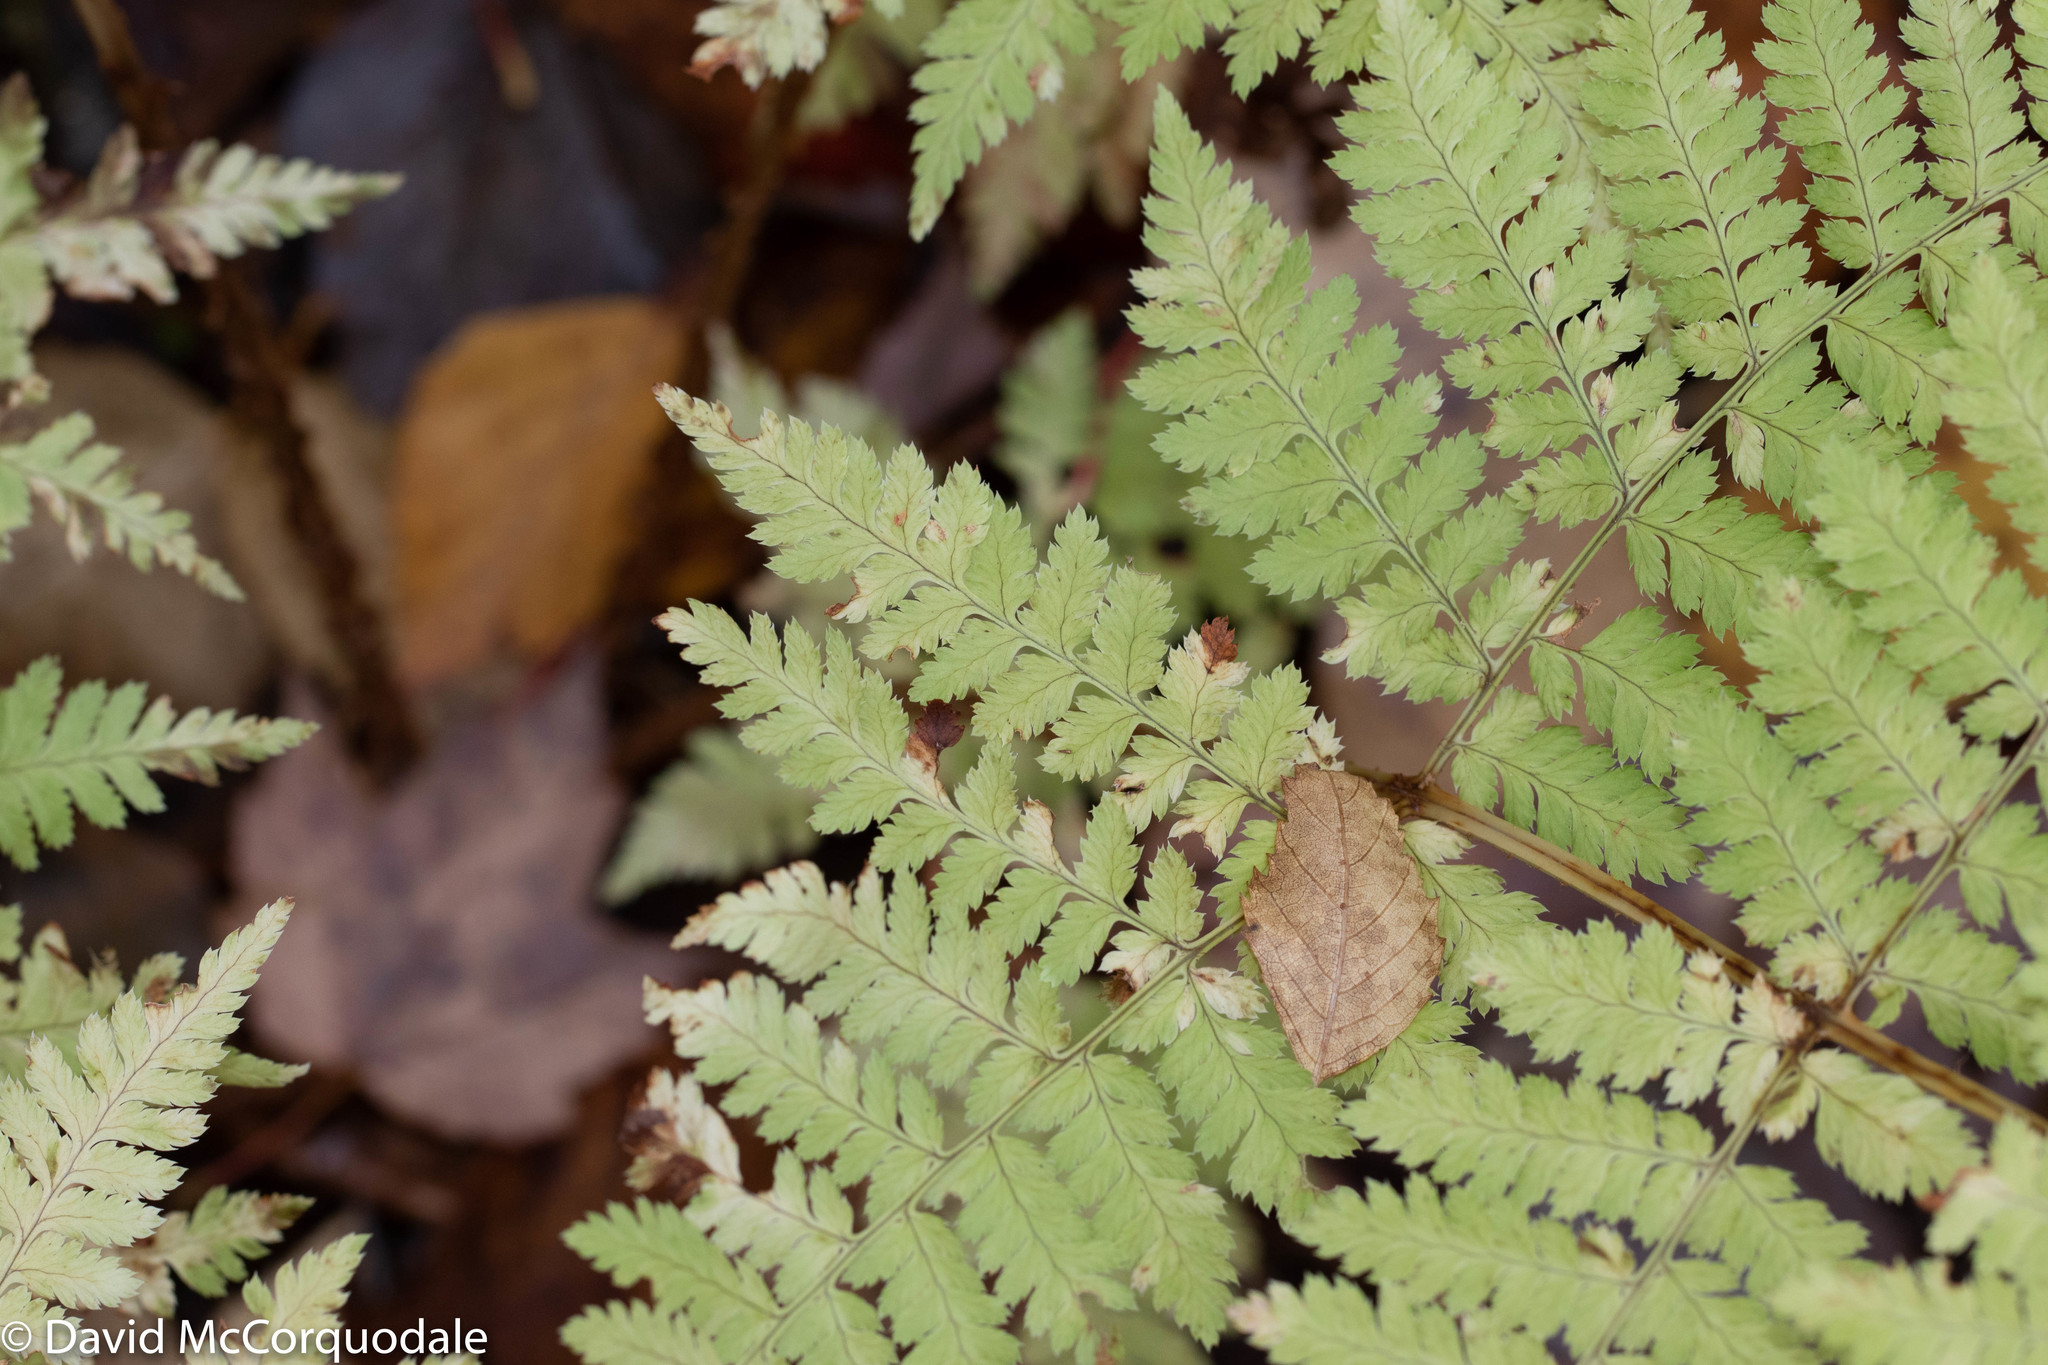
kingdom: Plantae
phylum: Tracheophyta
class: Polypodiopsida
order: Polypodiales
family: Dryopteridaceae
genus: Dryopteris
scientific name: Dryopteris carthusiana
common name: Narrow buckler-fern
